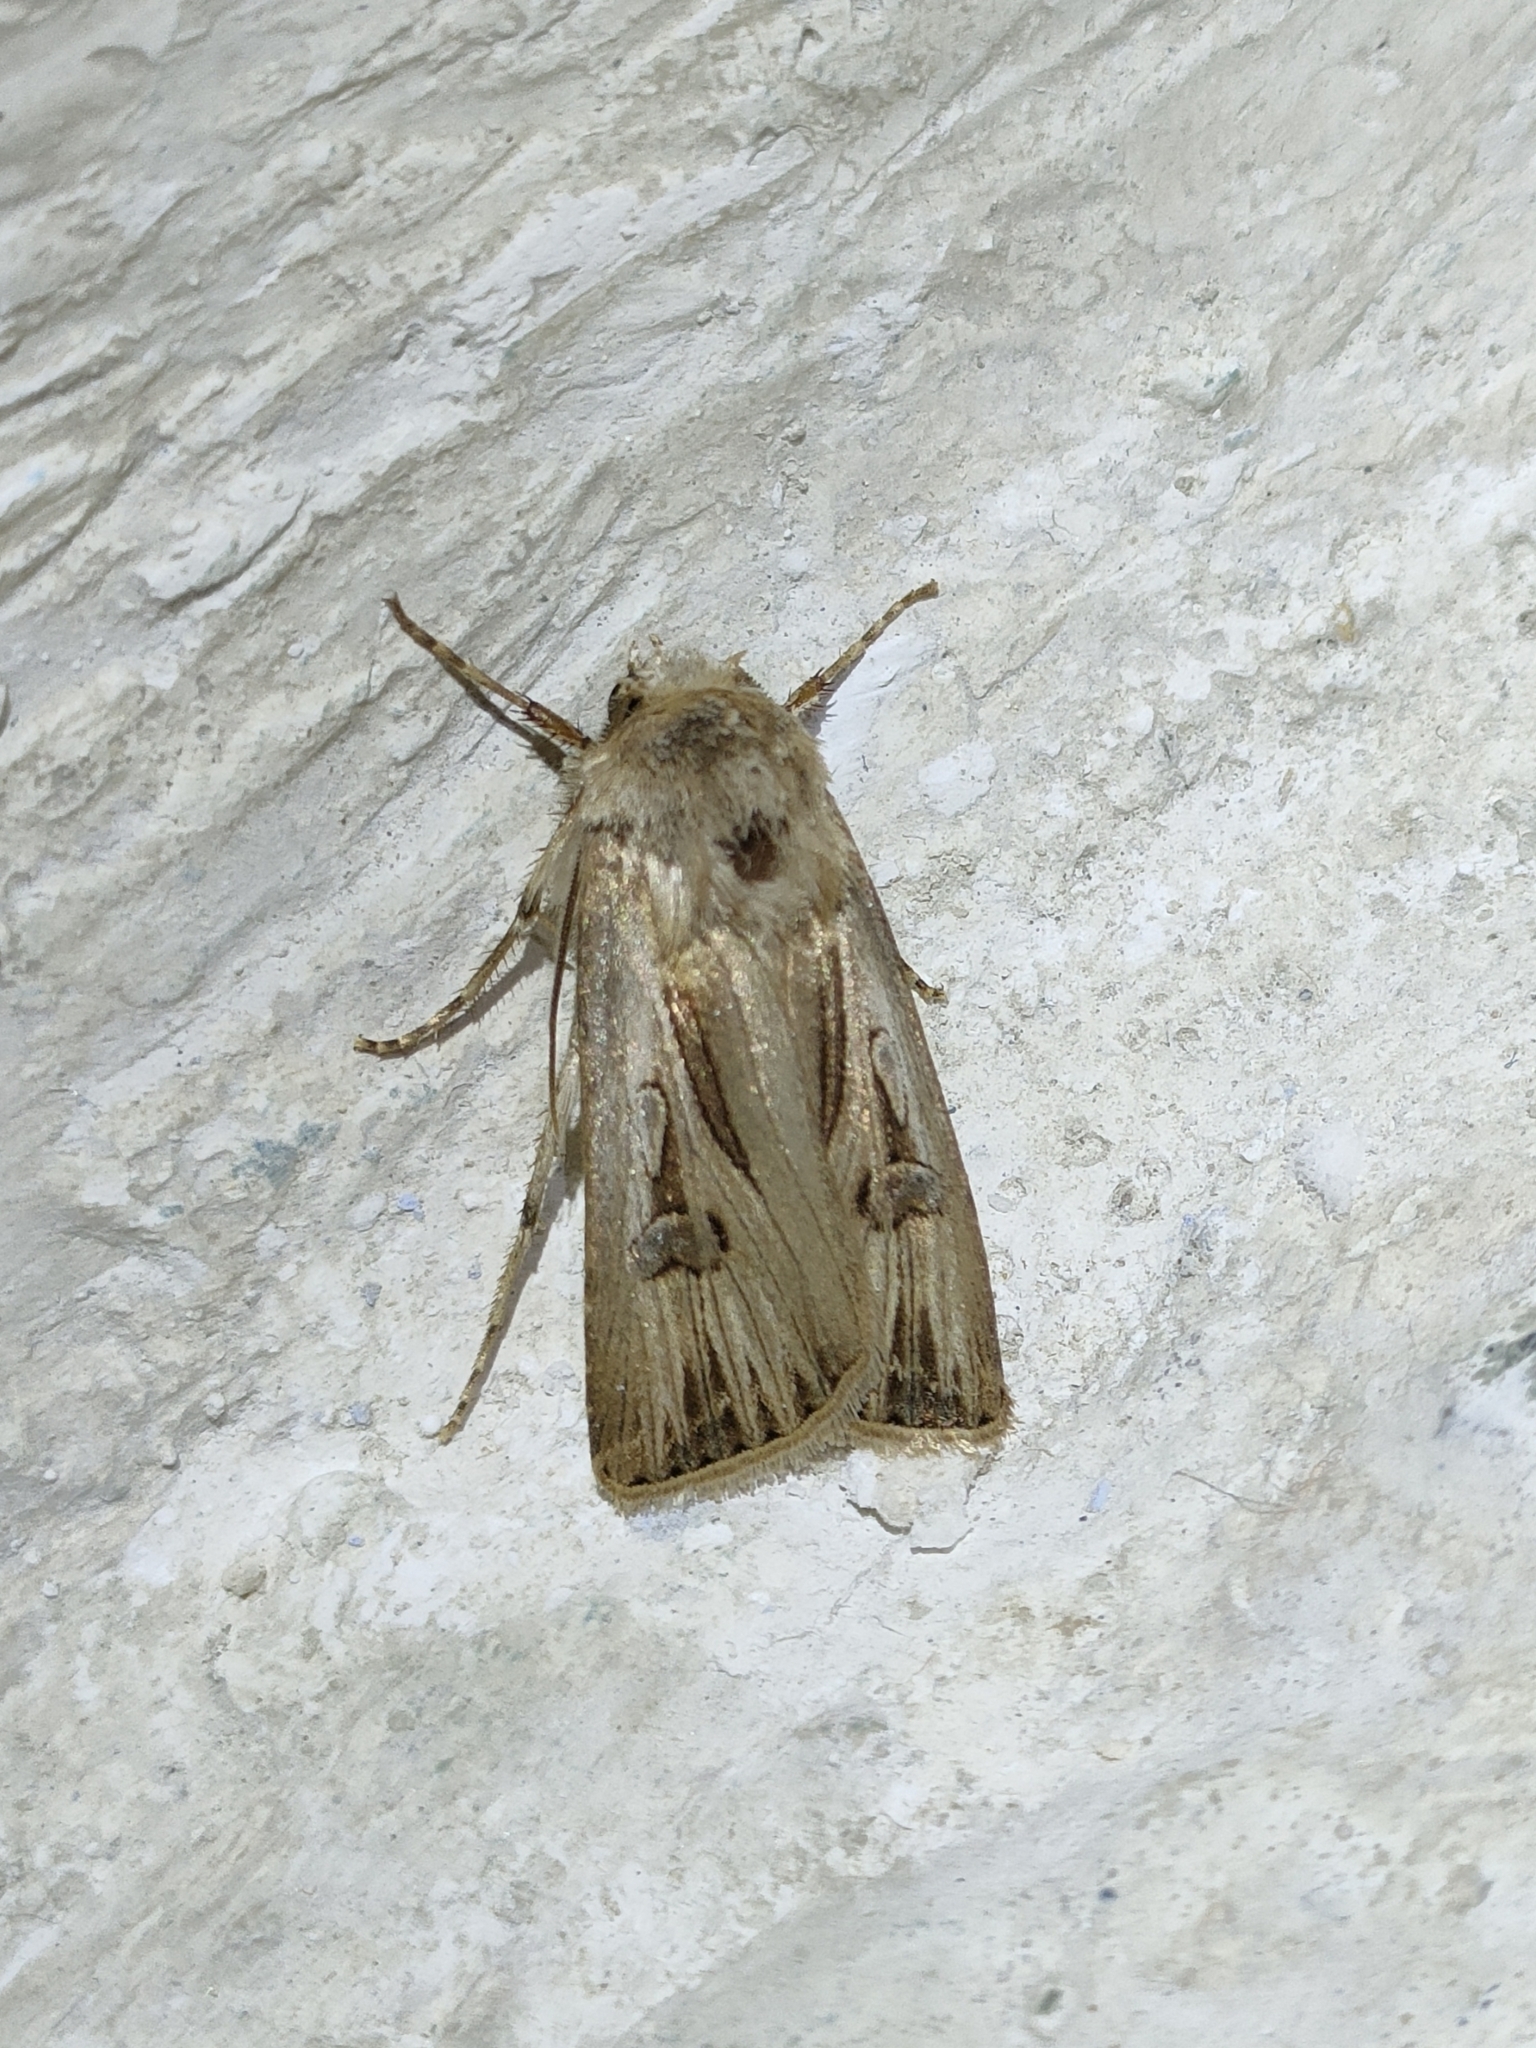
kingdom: Animalia
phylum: Arthropoda
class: Insecta
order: Lepidoptera
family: Noctuidae
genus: Agrotis
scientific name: Agrotis
